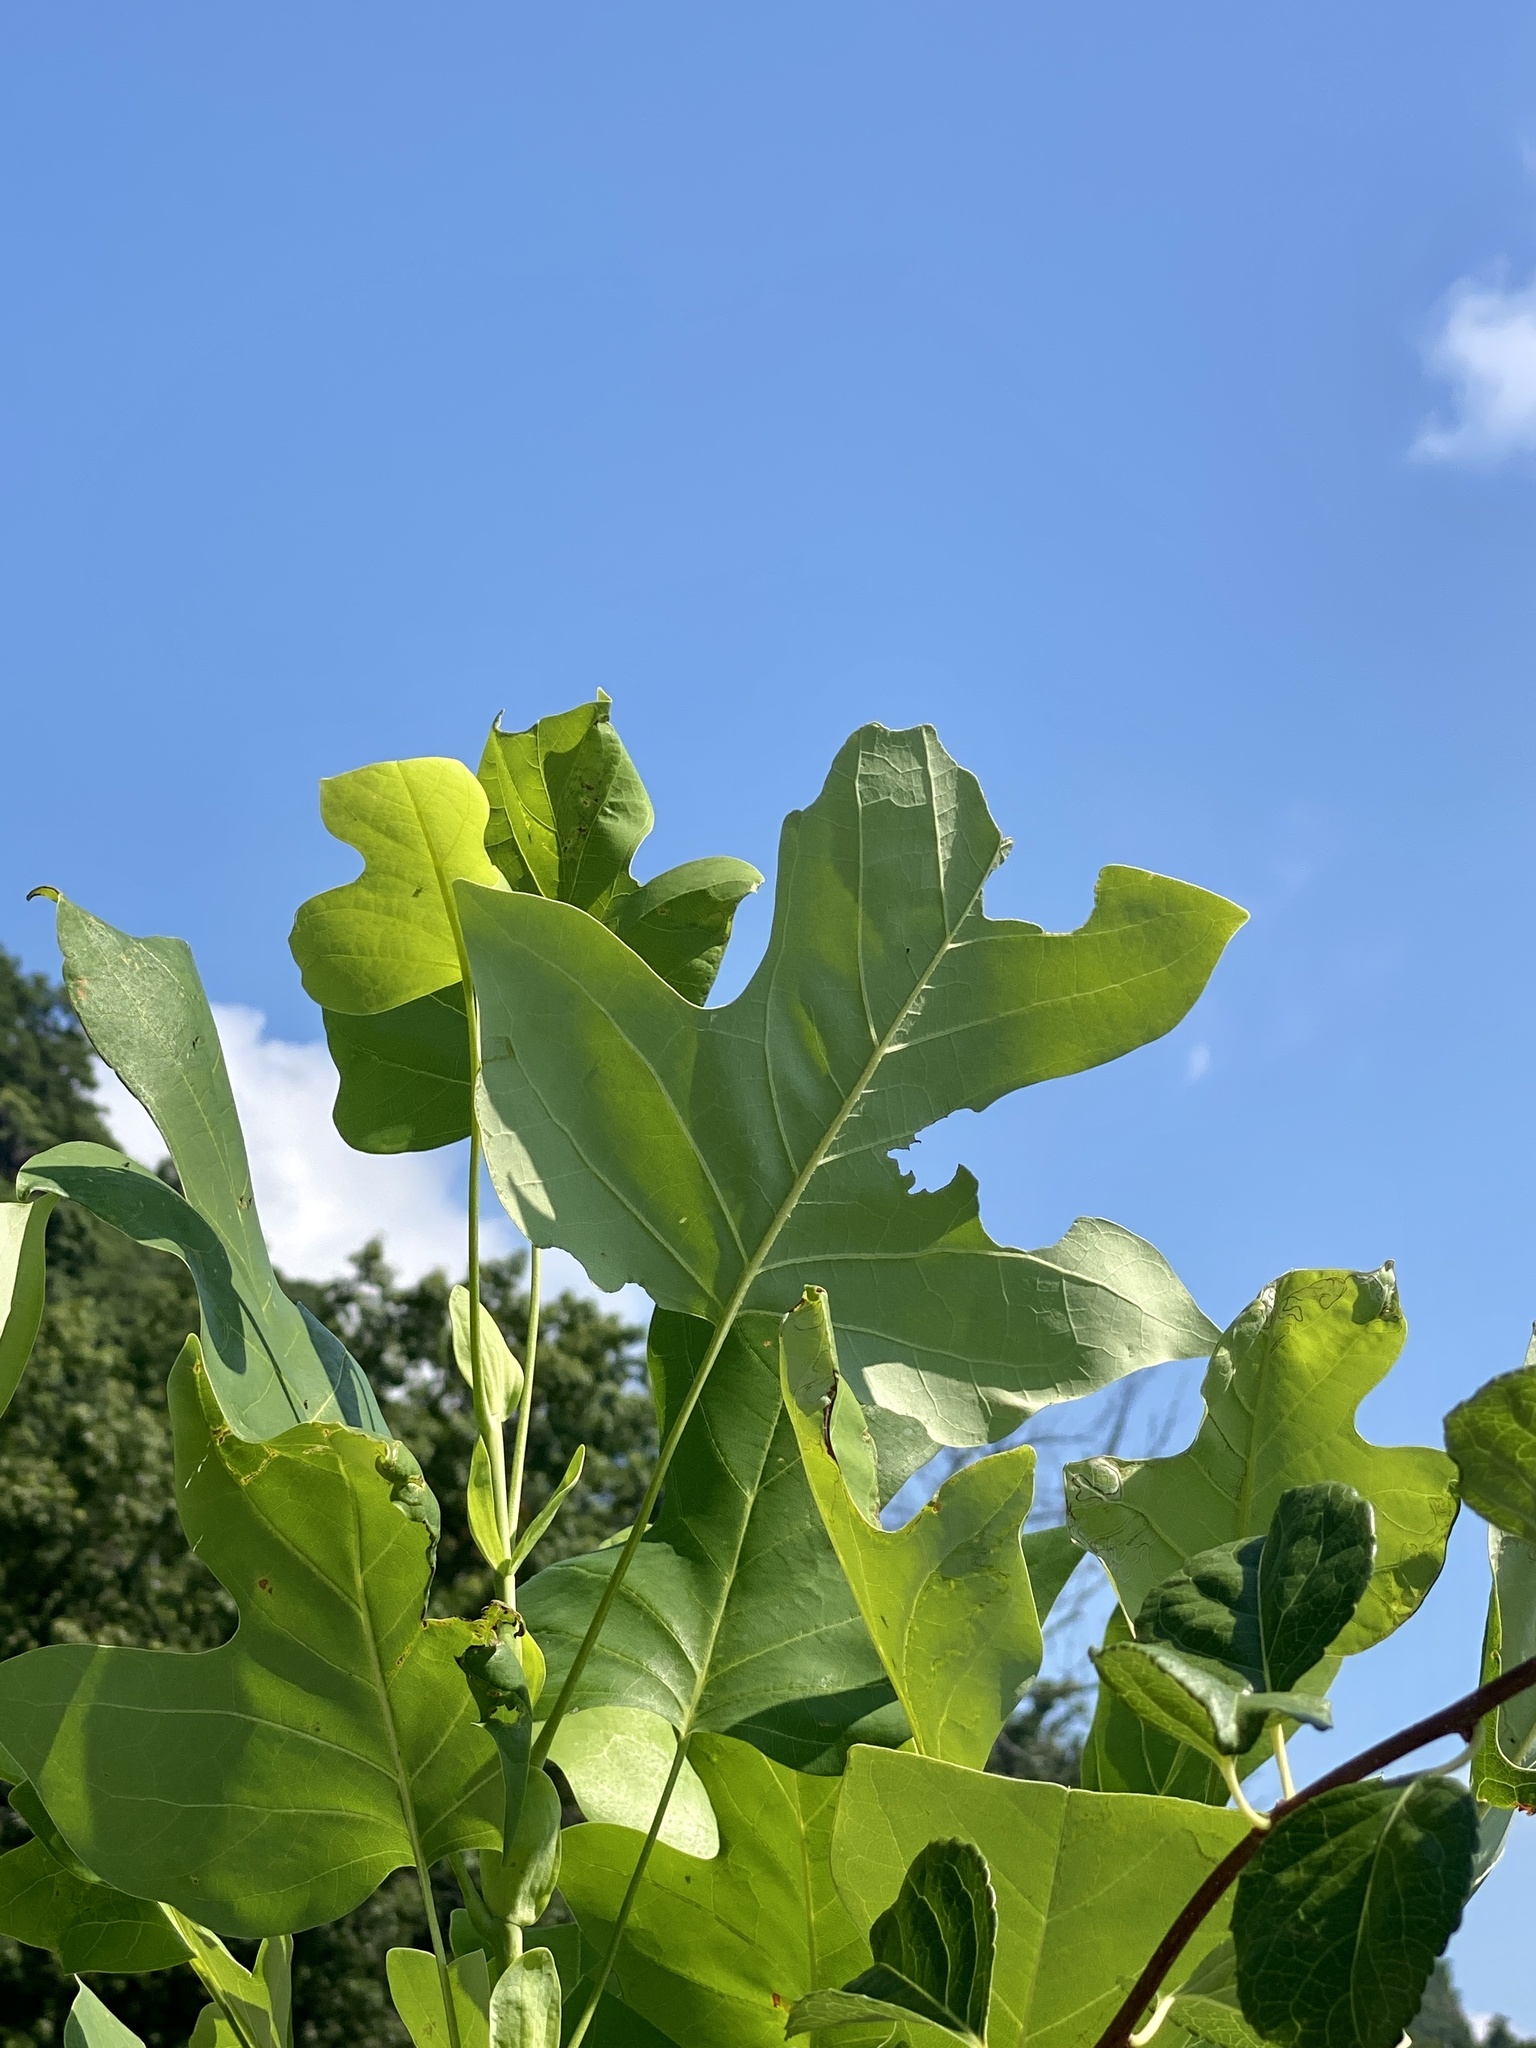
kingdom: Plantae
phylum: Tracheophyta
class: Magnoliopsida
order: Magnoliales
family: Magnoliaceae
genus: Liriodendron
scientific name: Liriodendron tulipifera
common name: Tulip tree
